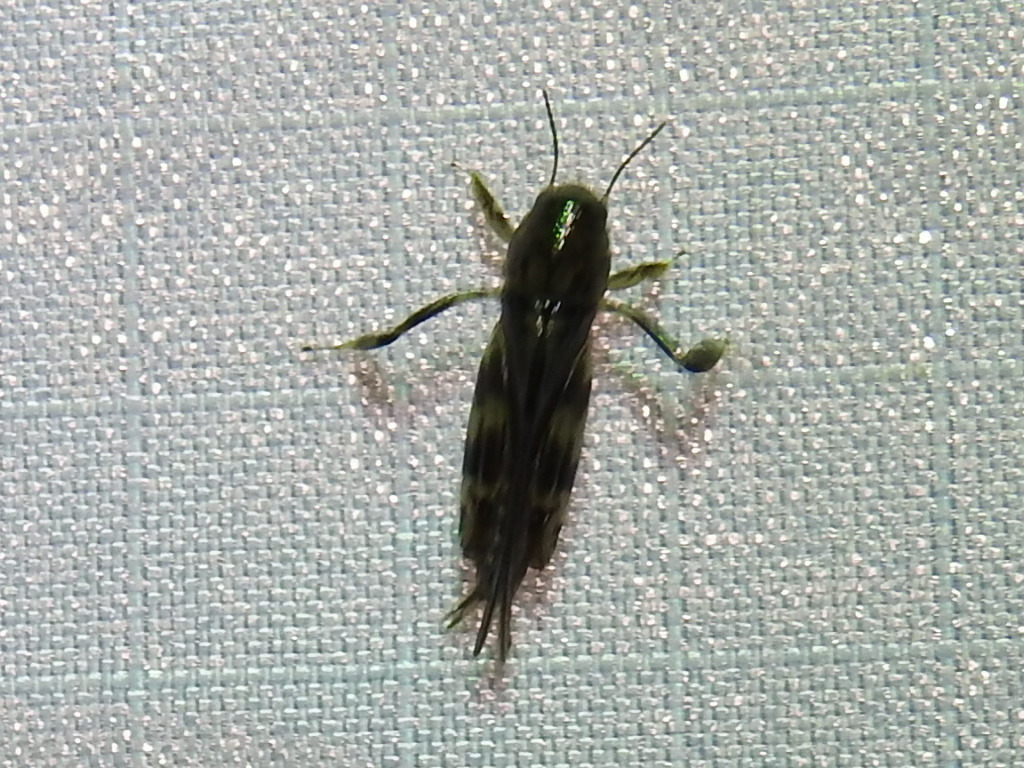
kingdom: Animalia
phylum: Arthropoda
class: Insecta
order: Orthoptera
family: Tridactylidae
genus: Neotridactylus
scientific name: Neotridactylus apicialis
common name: Larger pygmy locust
